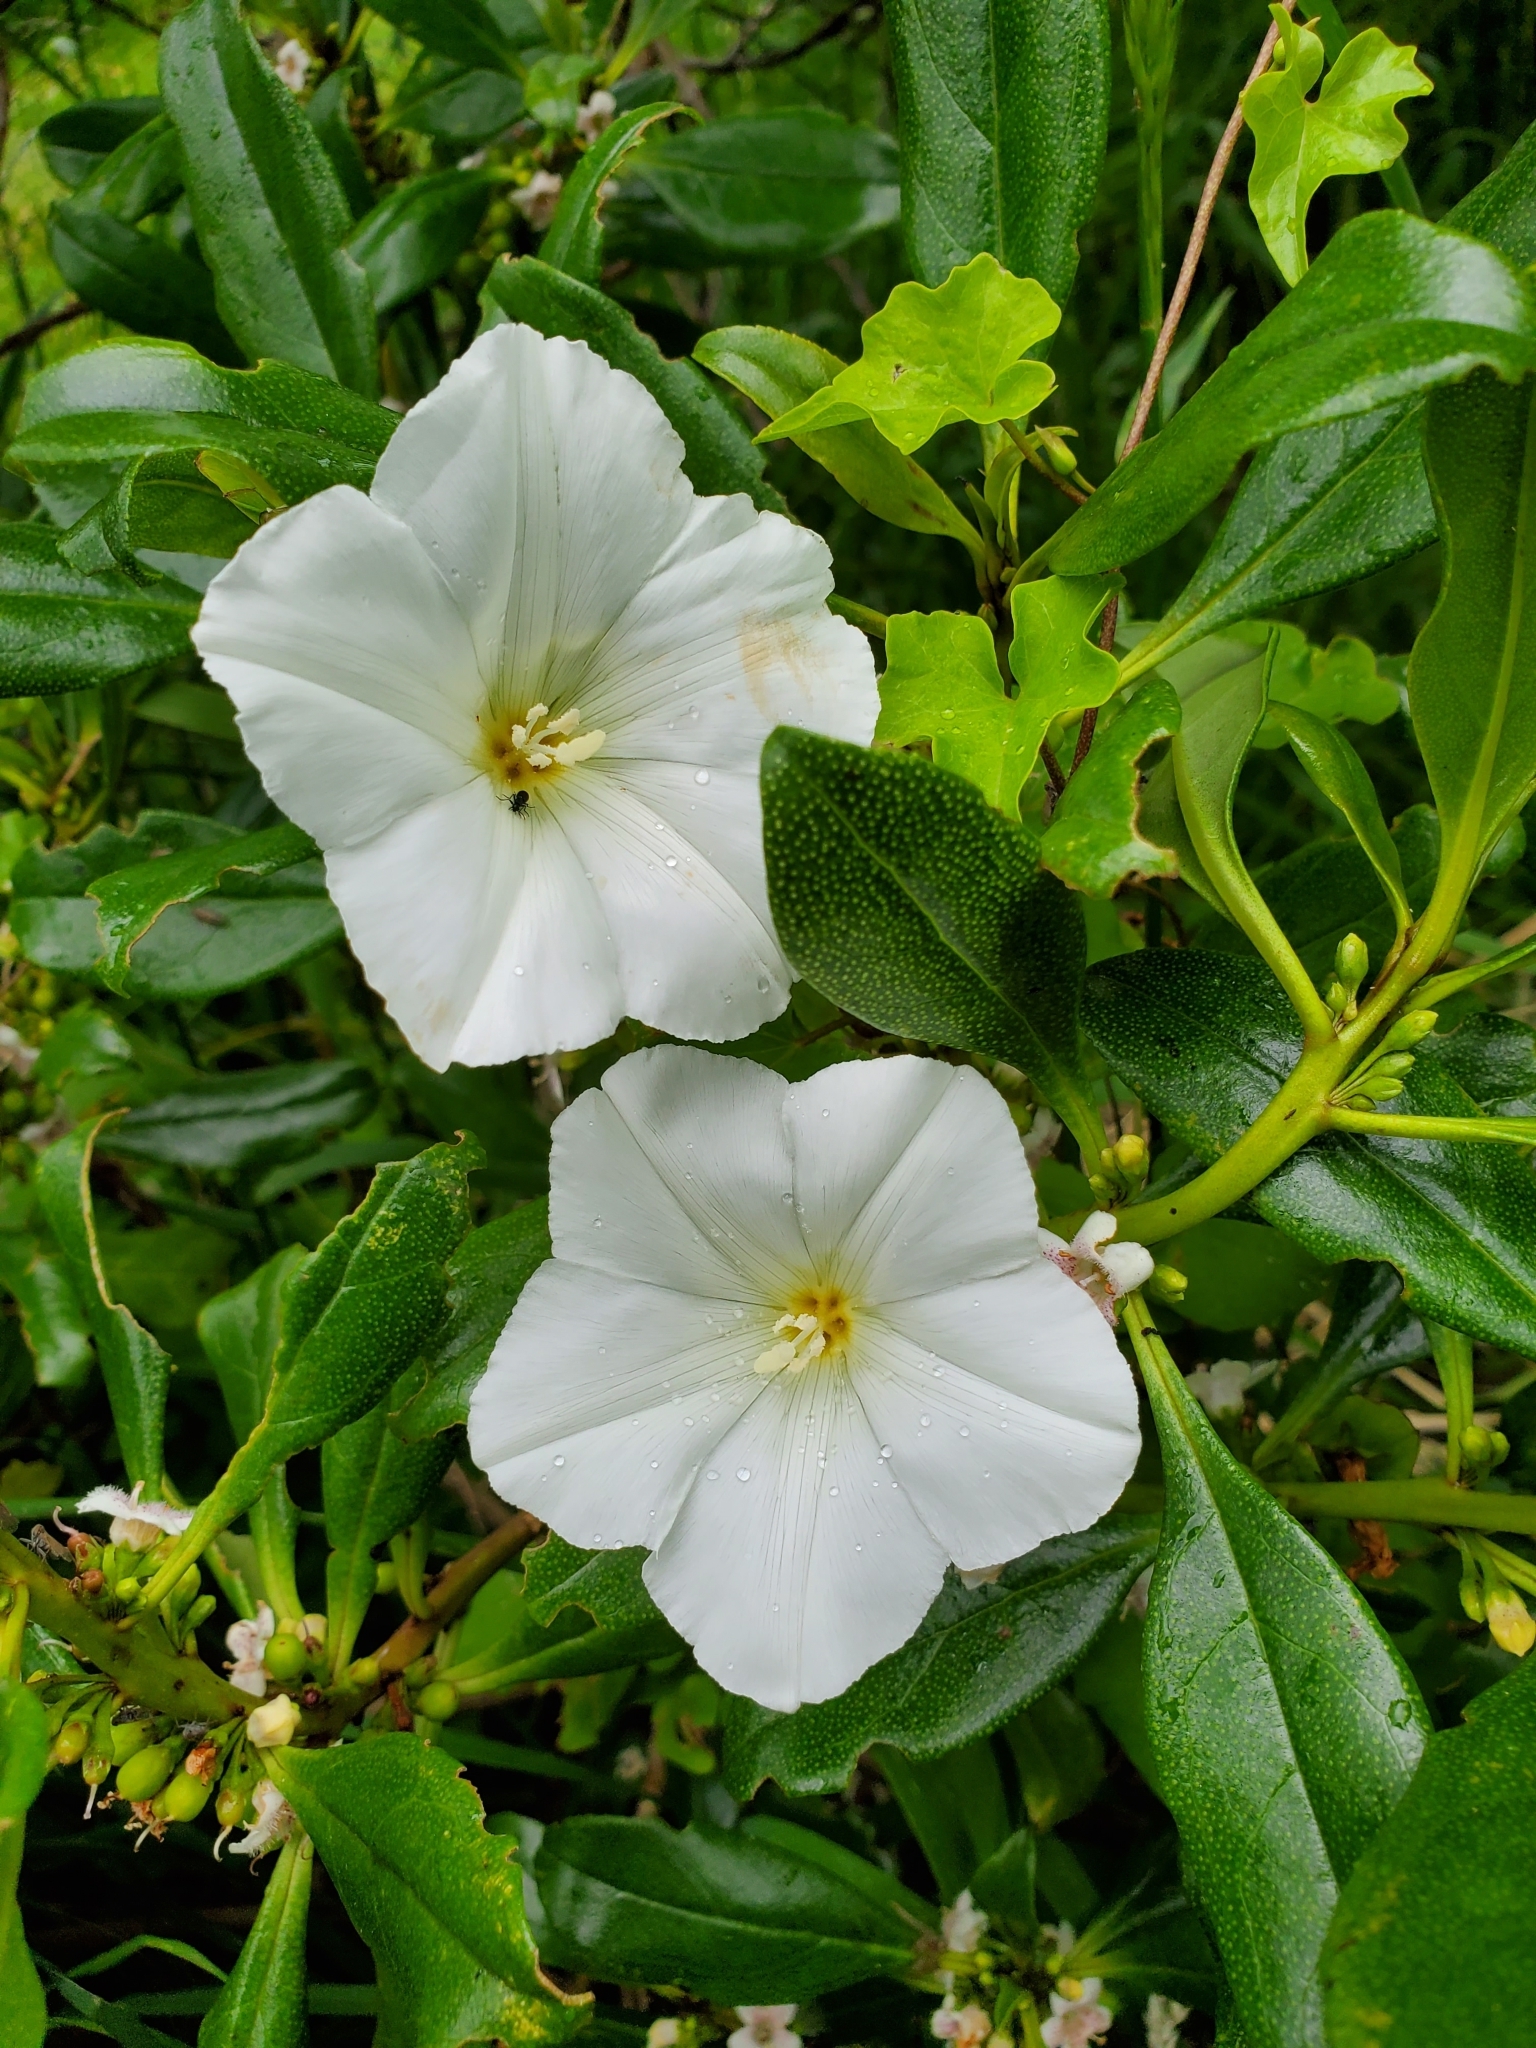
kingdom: Plantae
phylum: Tracheophyta
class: Magnoliopsida
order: Solanales
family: Convolvulaceae
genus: Calystegia
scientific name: Calystegia tuguriorum
